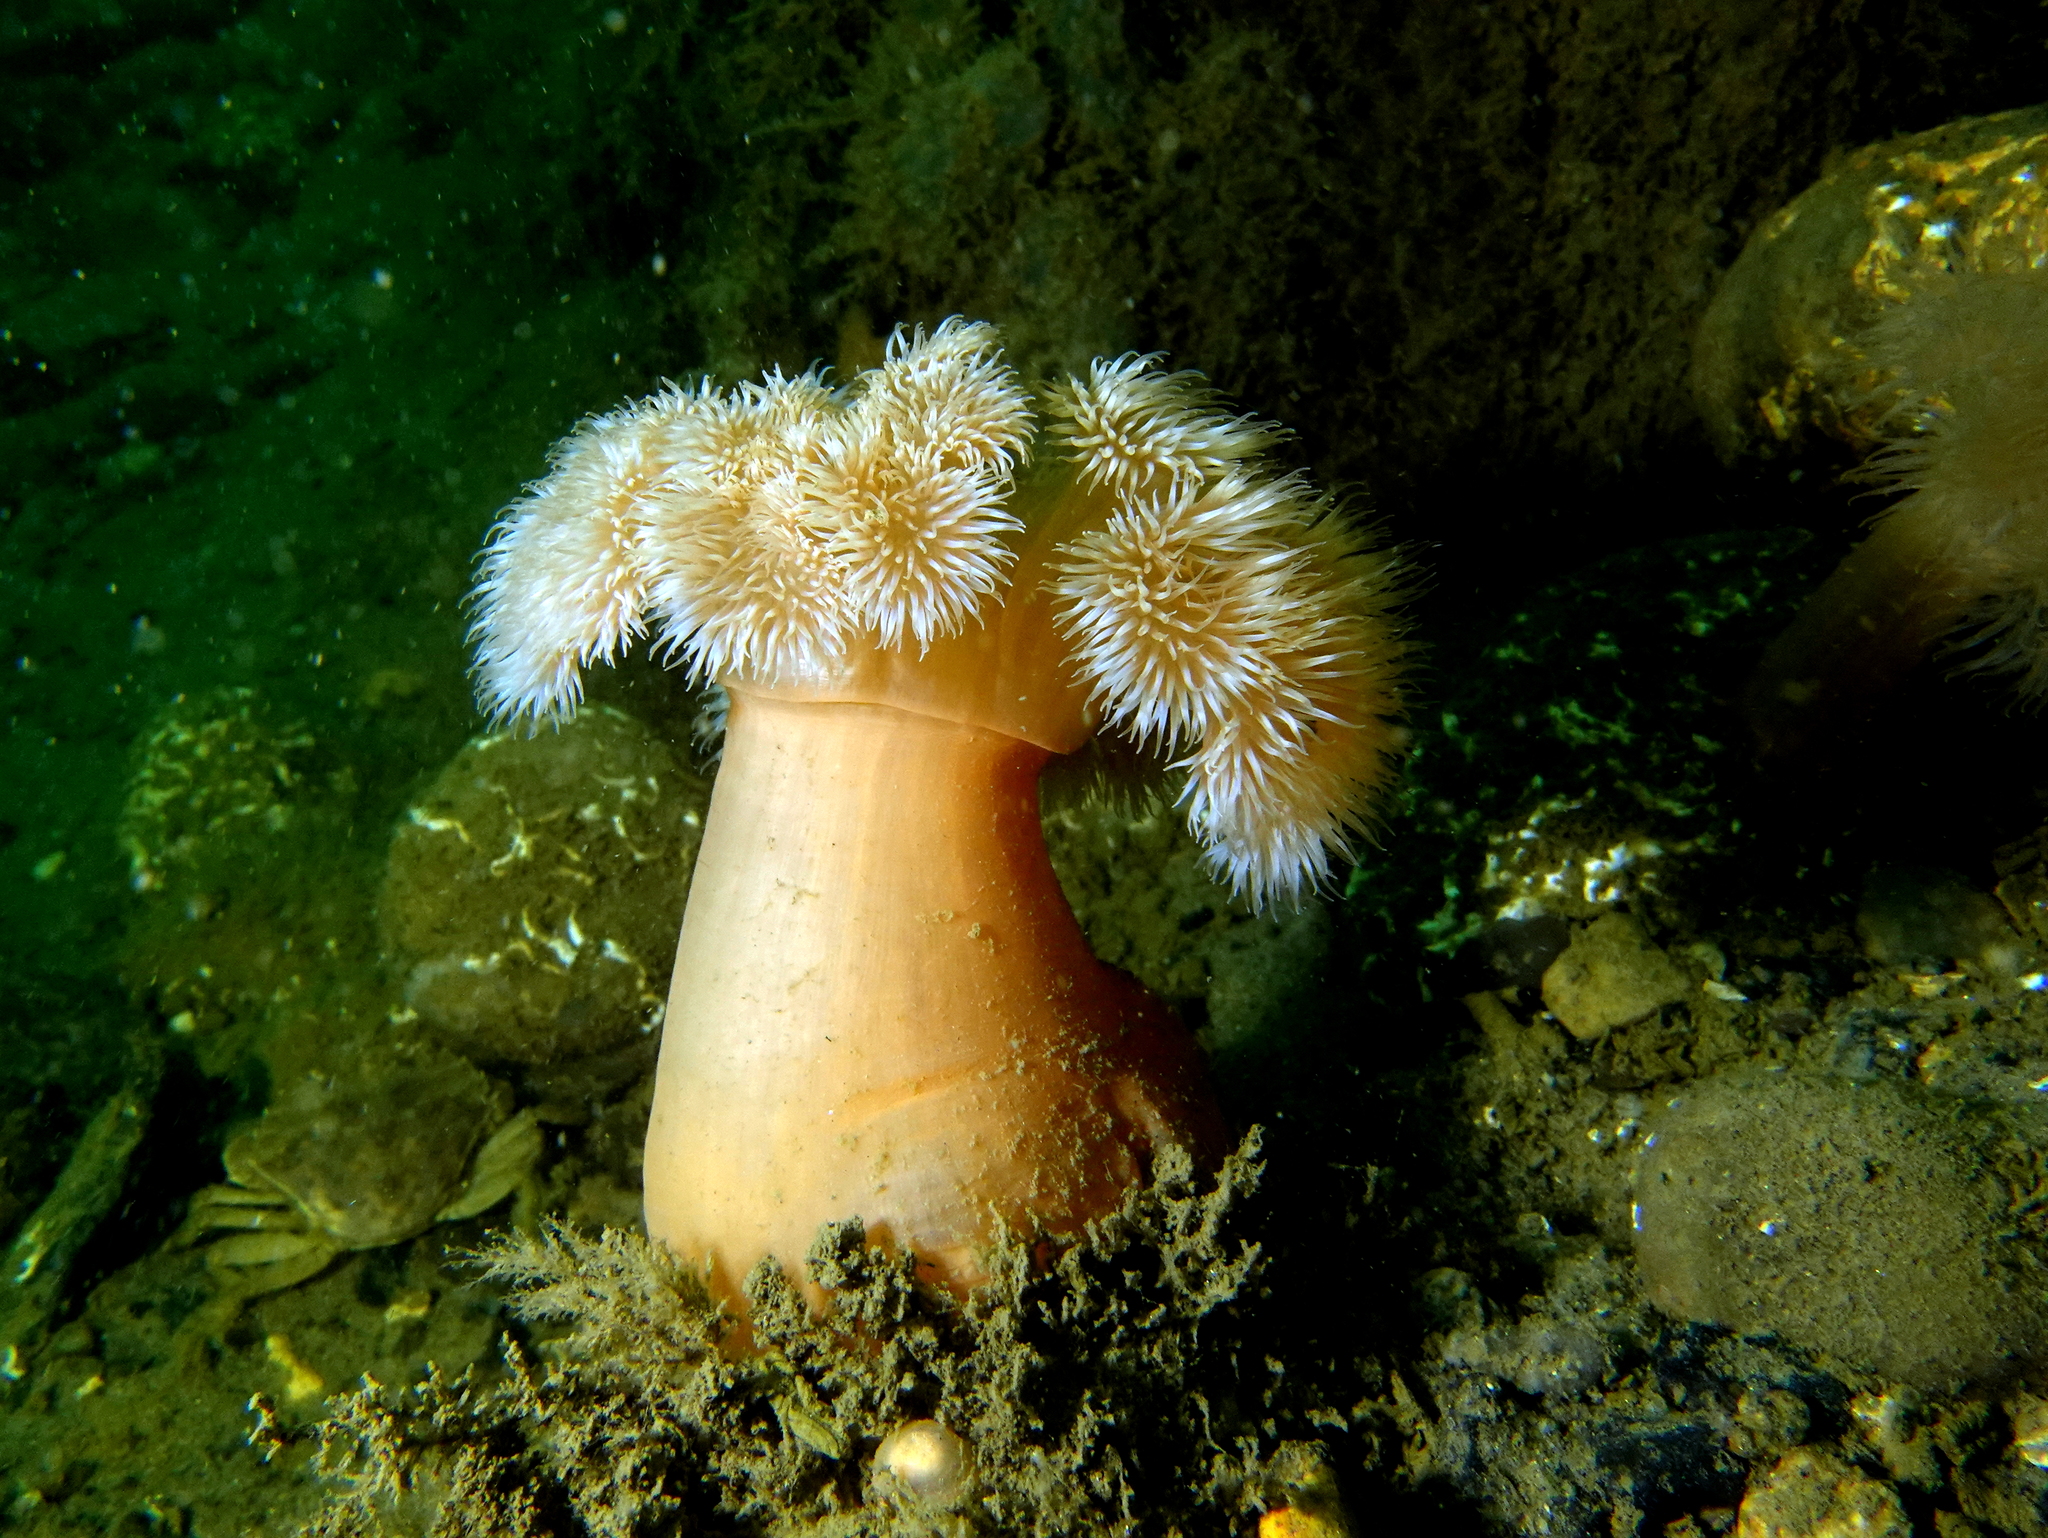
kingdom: Animalia
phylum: Cnidaria
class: Anthozoa
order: Actiniaria
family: Metridiidae
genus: Metridium
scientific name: Metridium senile
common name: Clonal plumose anemone
